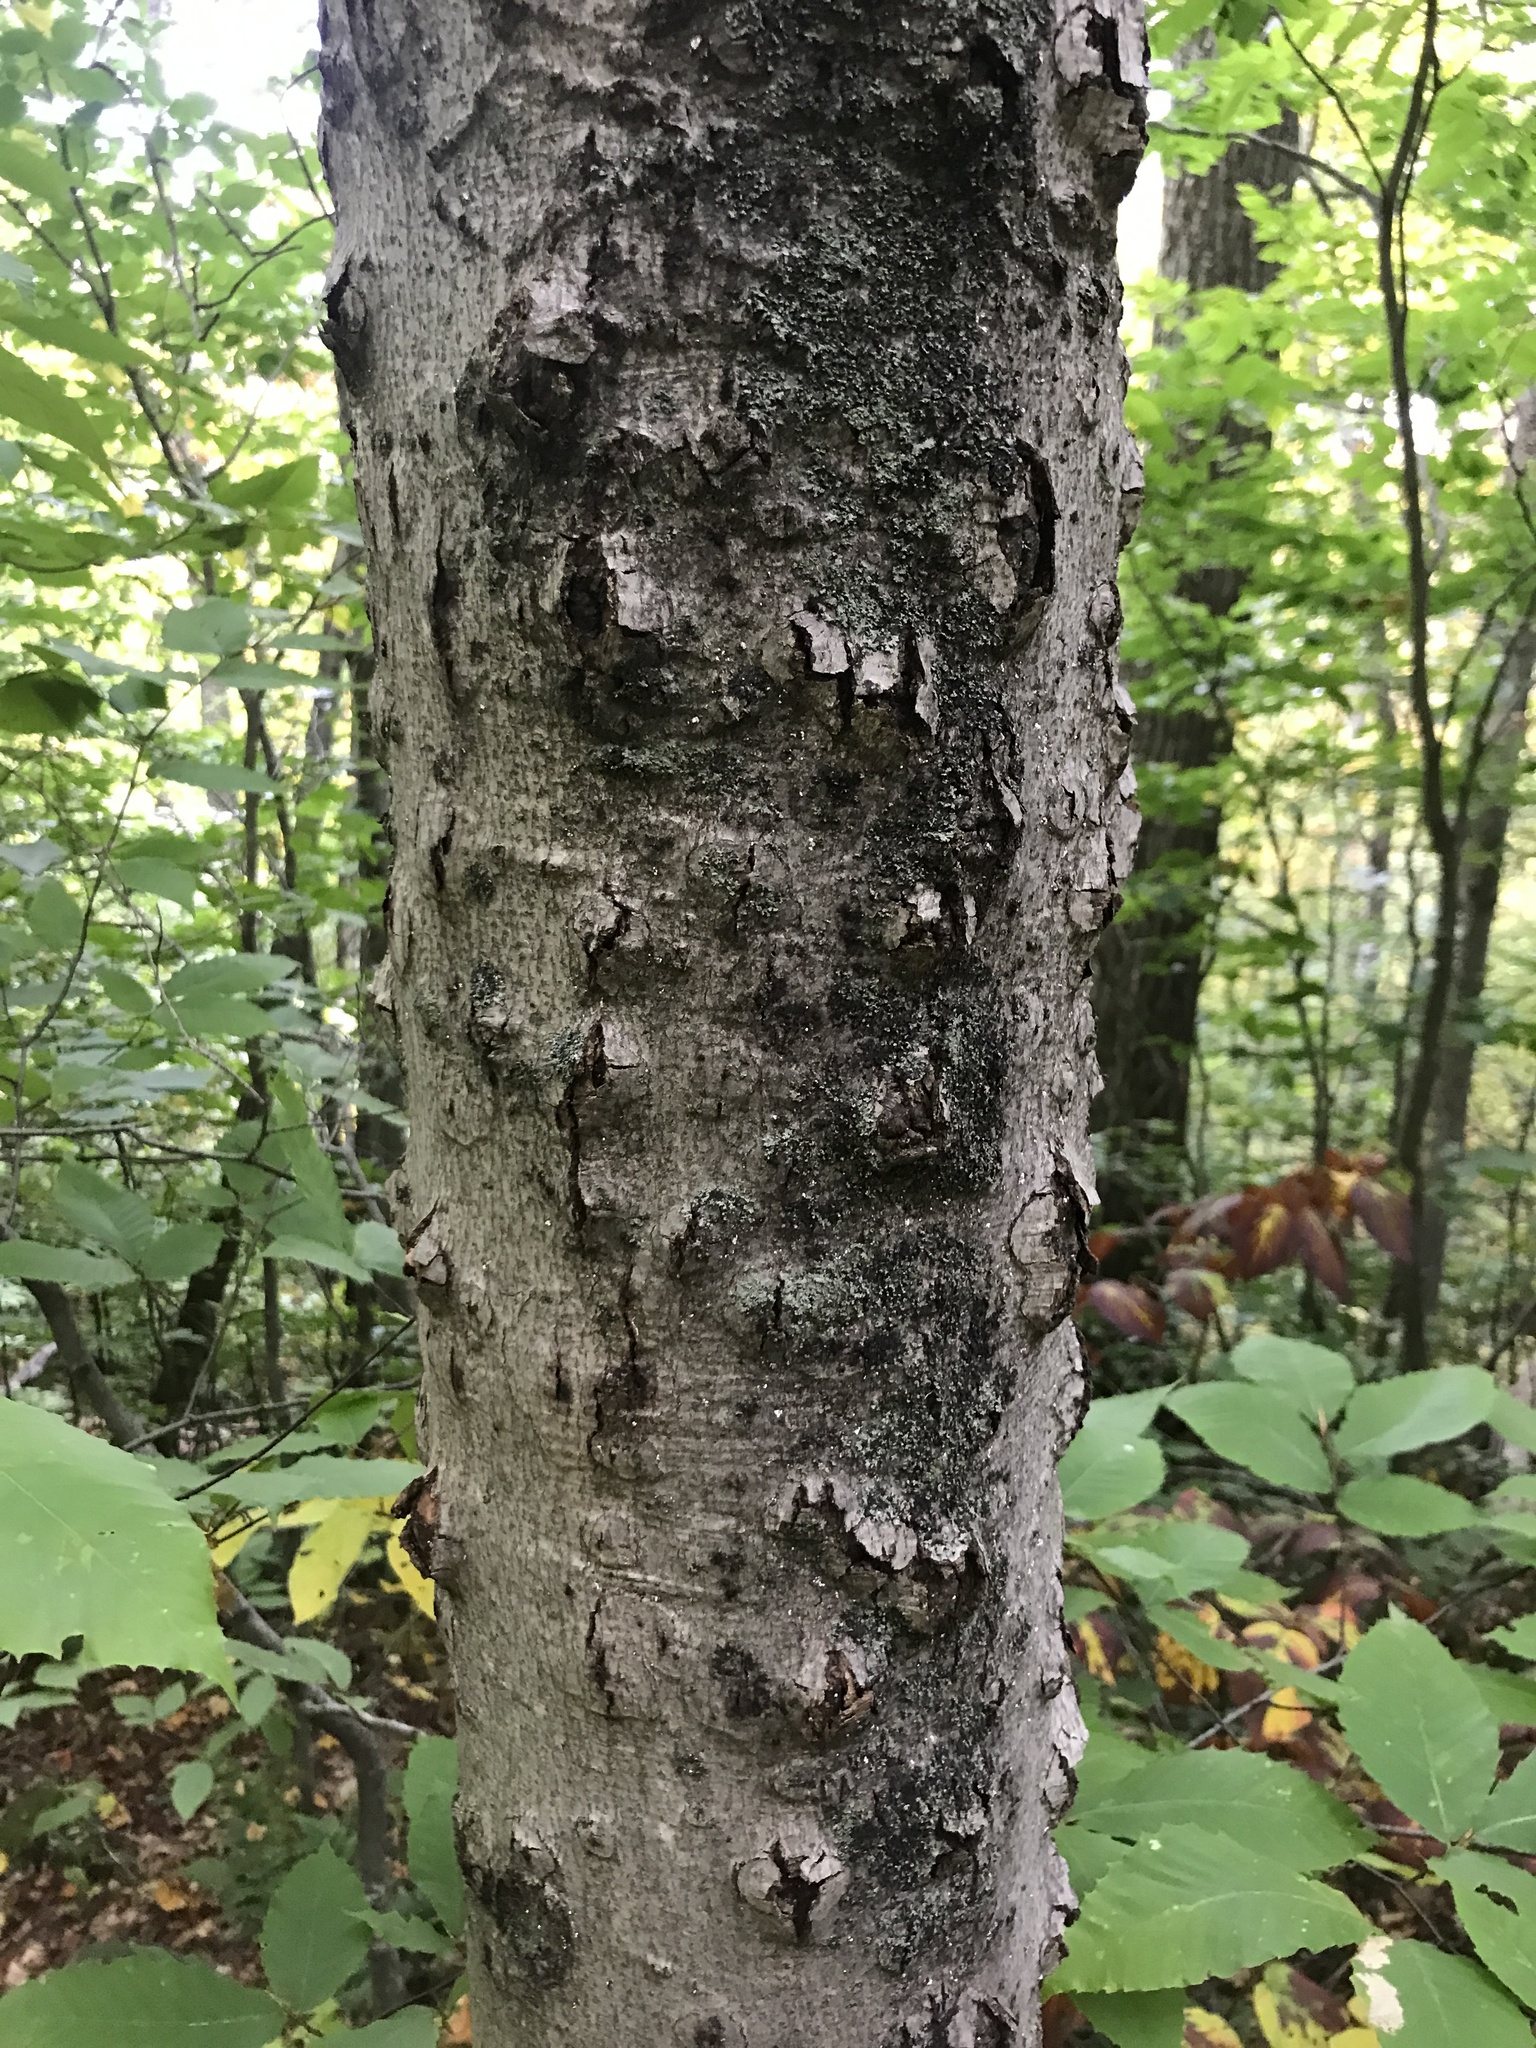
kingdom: Fungi
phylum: Ascomycota
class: Sordariomycetes
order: Hypocreales
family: Nectriaceae
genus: Neonectria
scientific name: Neonectria faginata
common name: Beech bark canker
